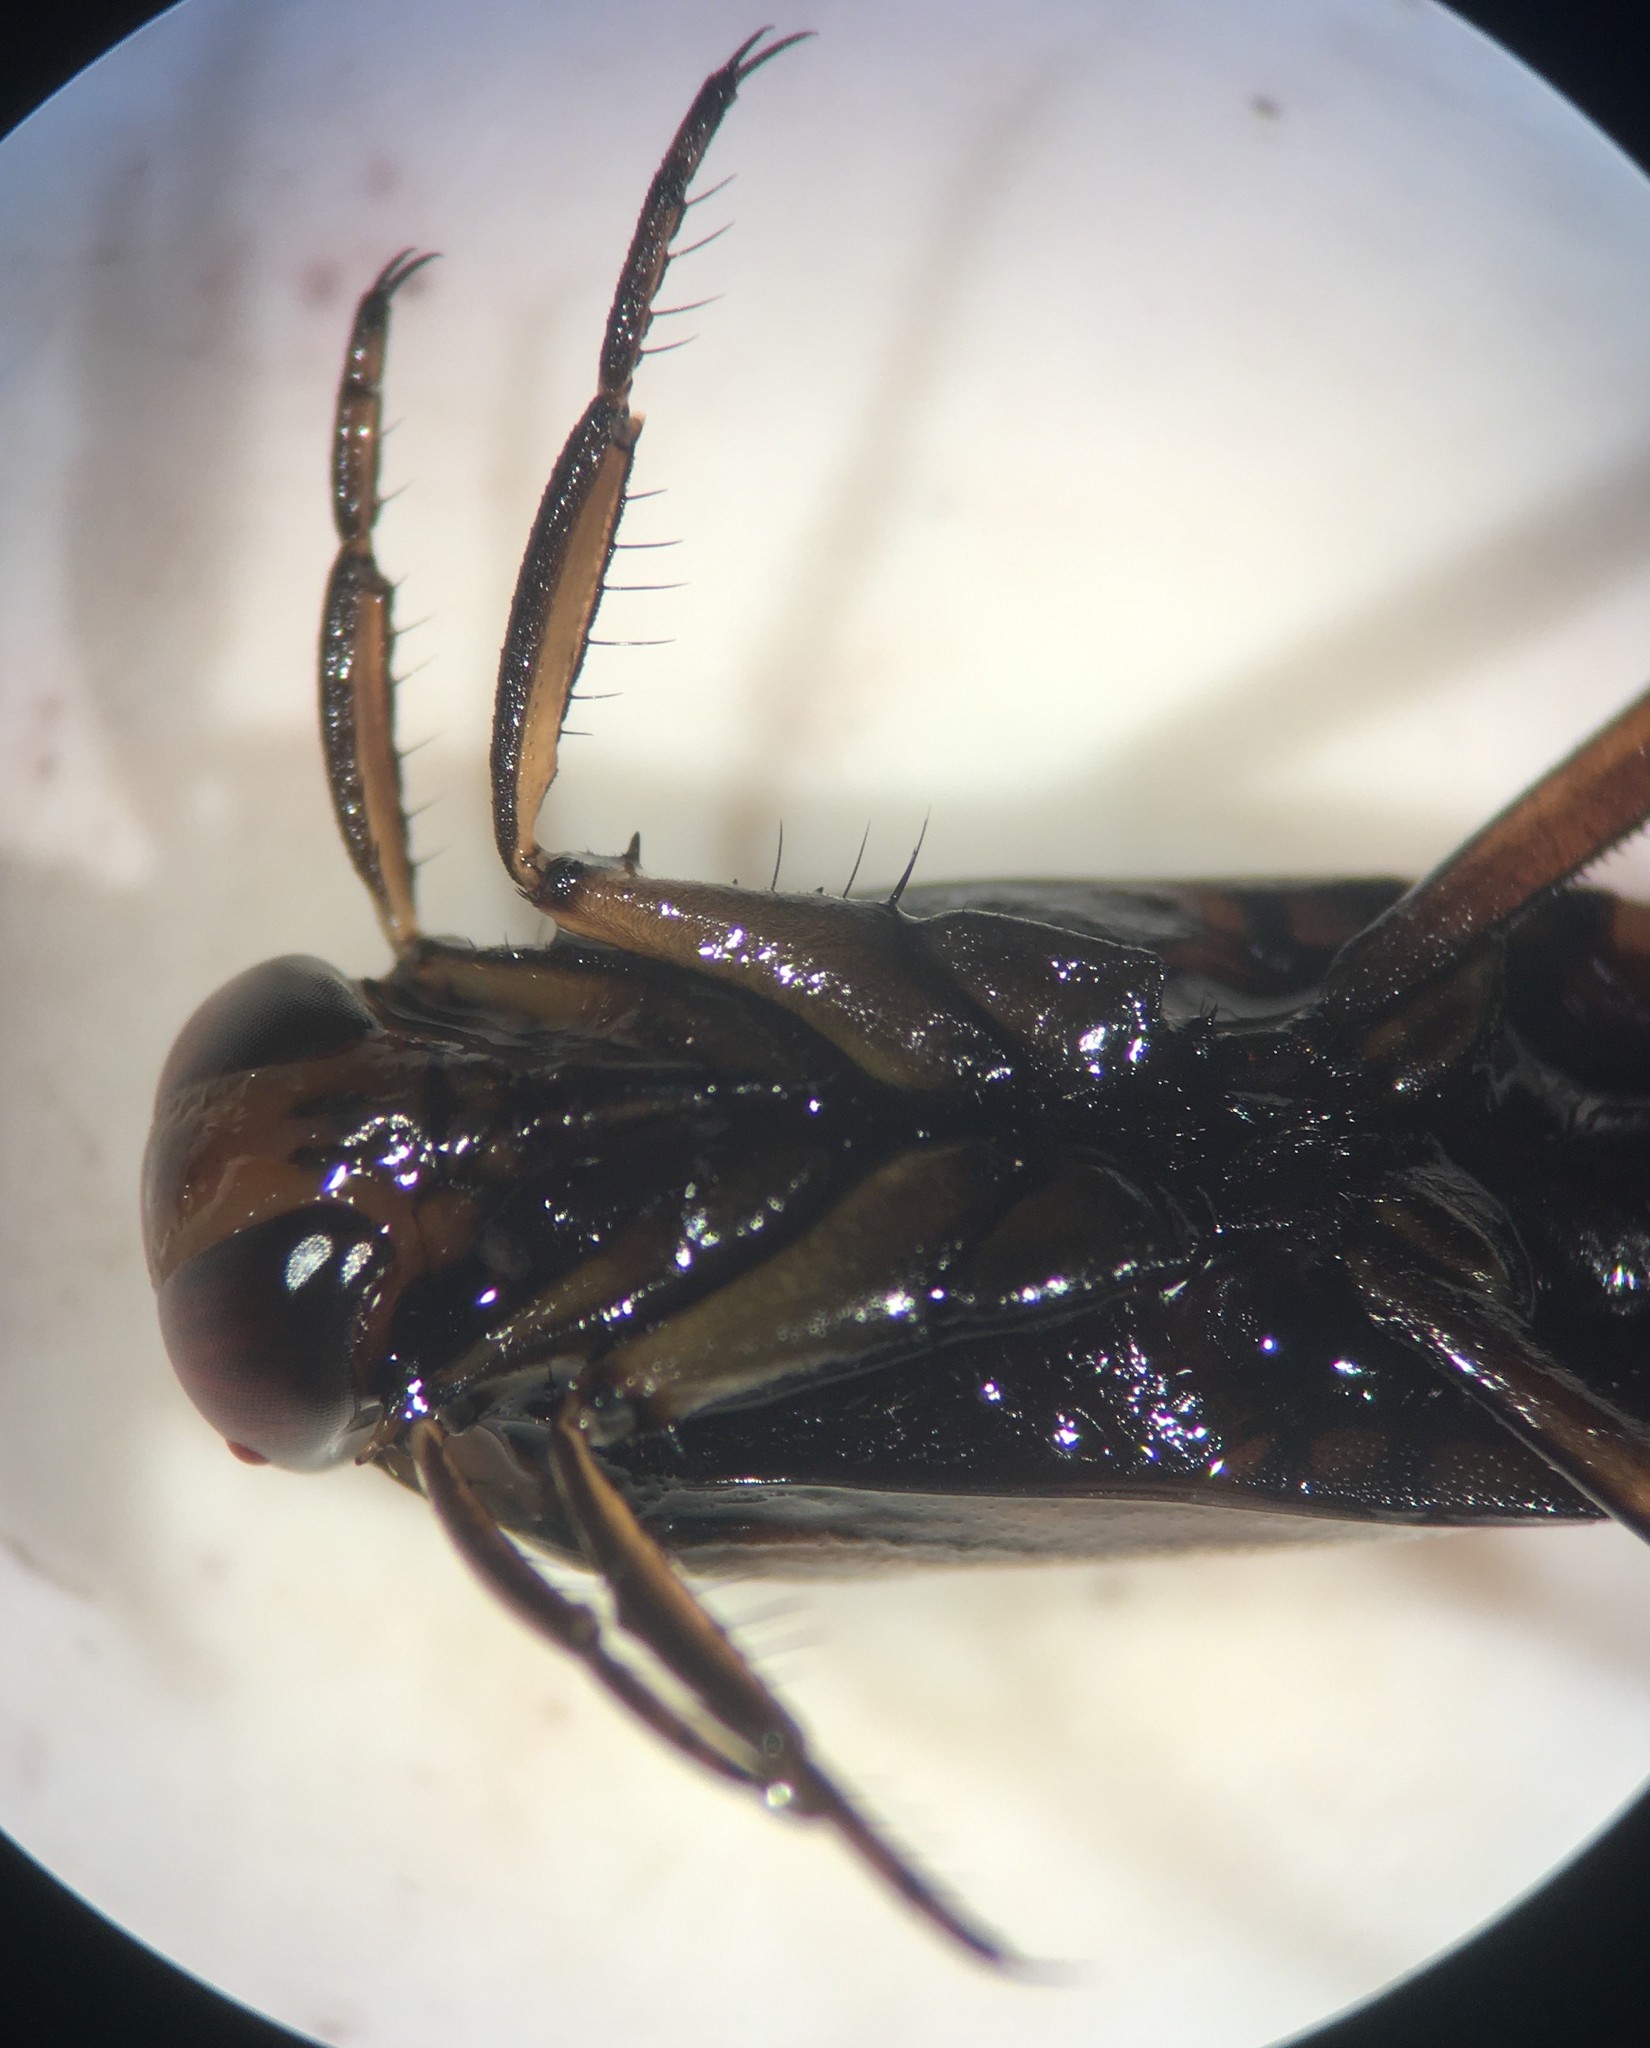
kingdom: Animalia
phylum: Arthropoda
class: Insecta
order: Hemiptera
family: Notonectidae
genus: Notonecta
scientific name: Notonecta uhleri
